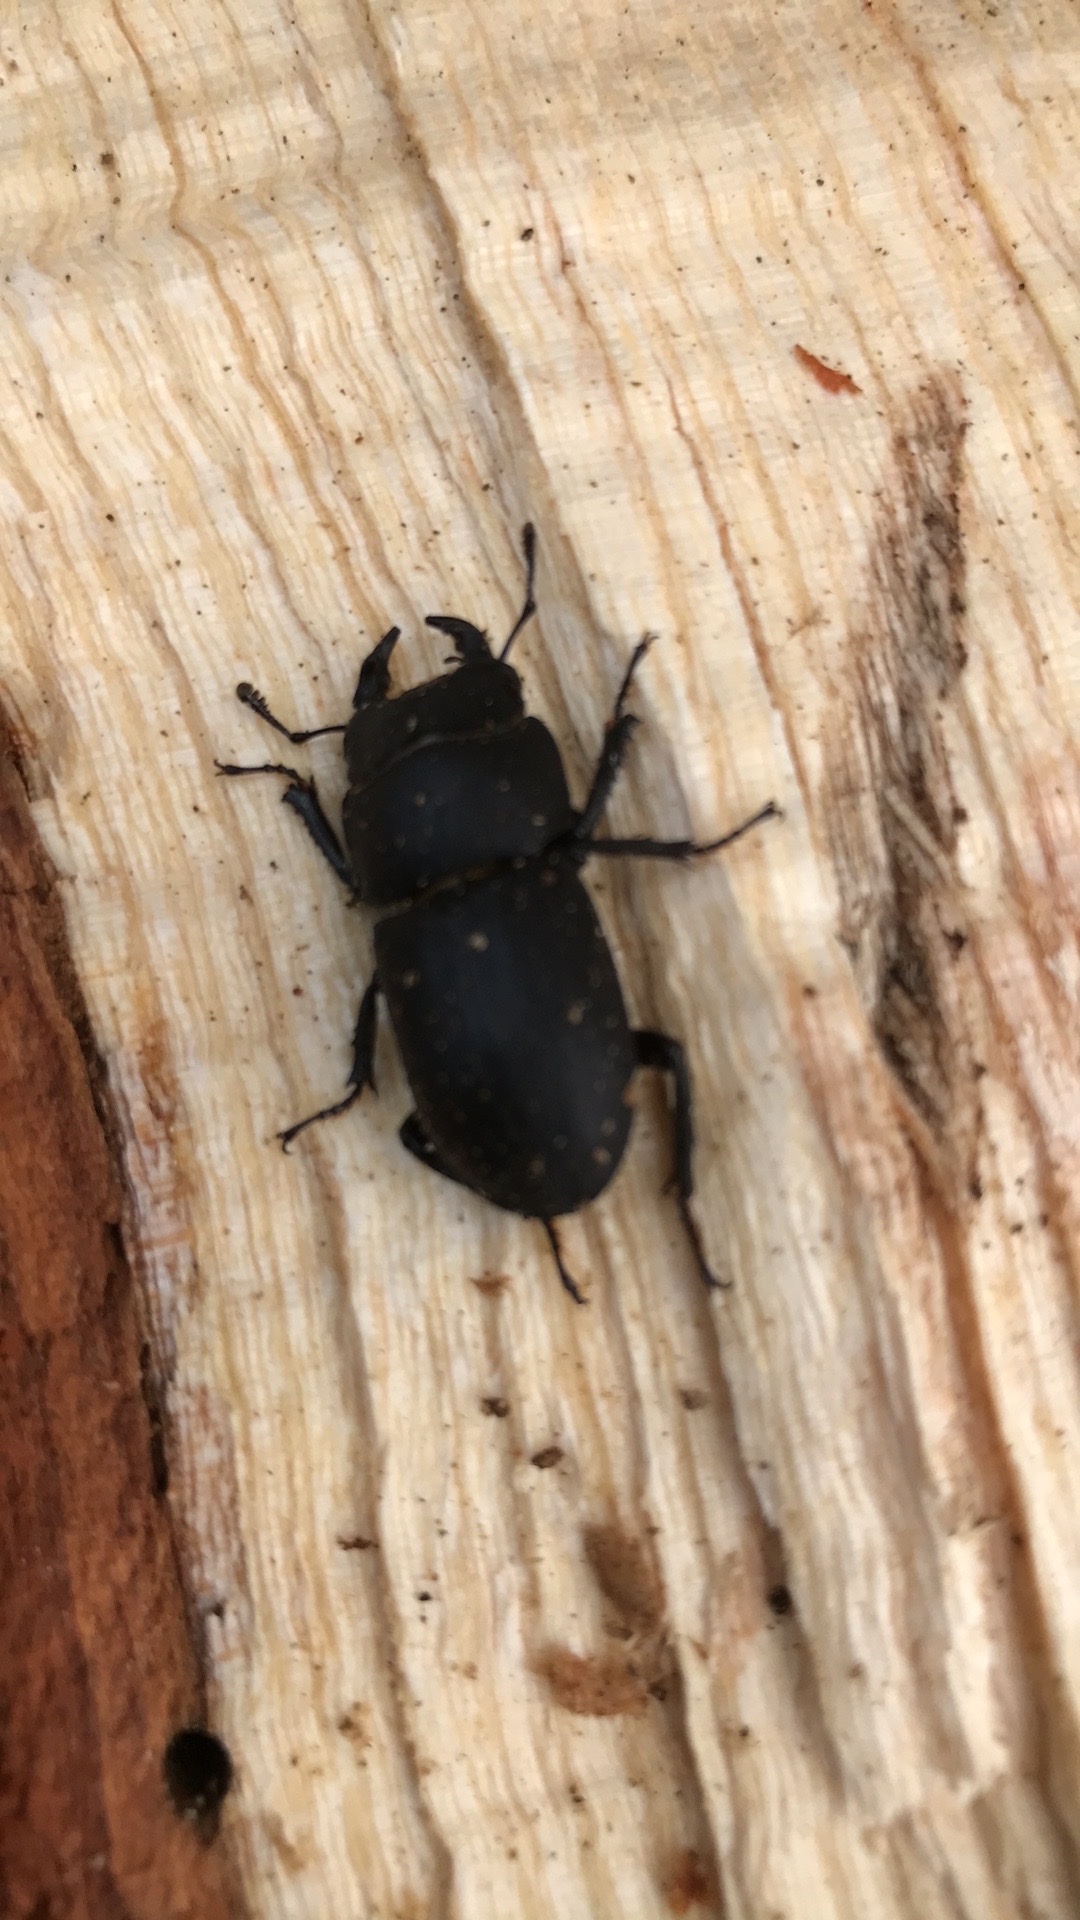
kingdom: Animalia
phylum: Arthropoda
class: Insecta
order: Coleoptera
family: Lucanidae
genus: Dorcus
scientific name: Dorcus parallelipipedus
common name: Lesser stag beetle
